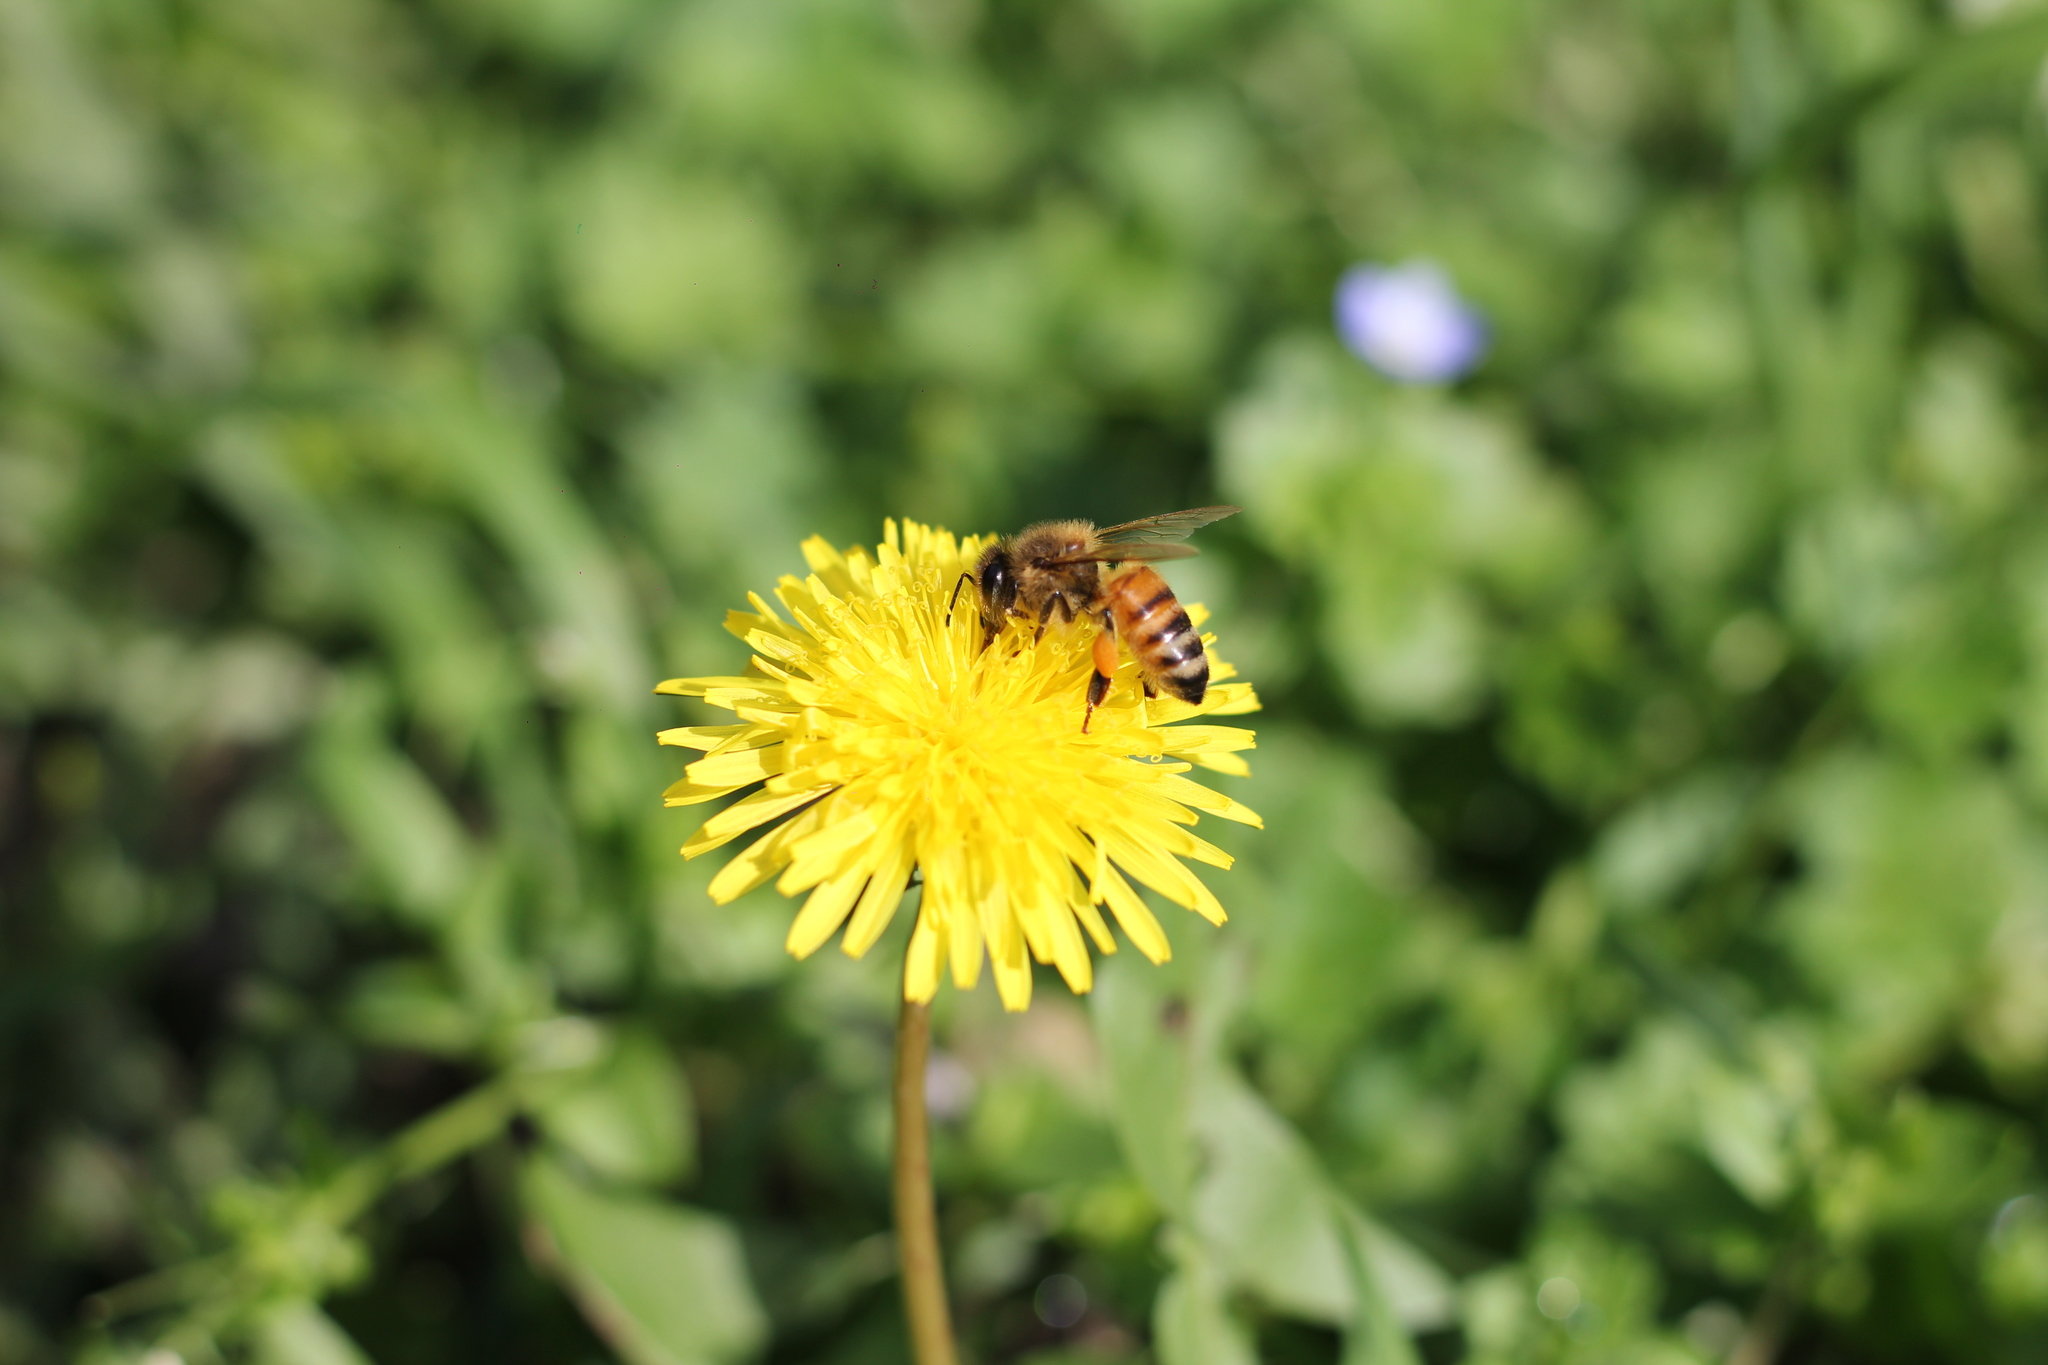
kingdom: Animalia
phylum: Arthropoda
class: Insecta
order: Hymenoptera
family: Apidae
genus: Apis
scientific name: Apis mellifera
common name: Honey bee
